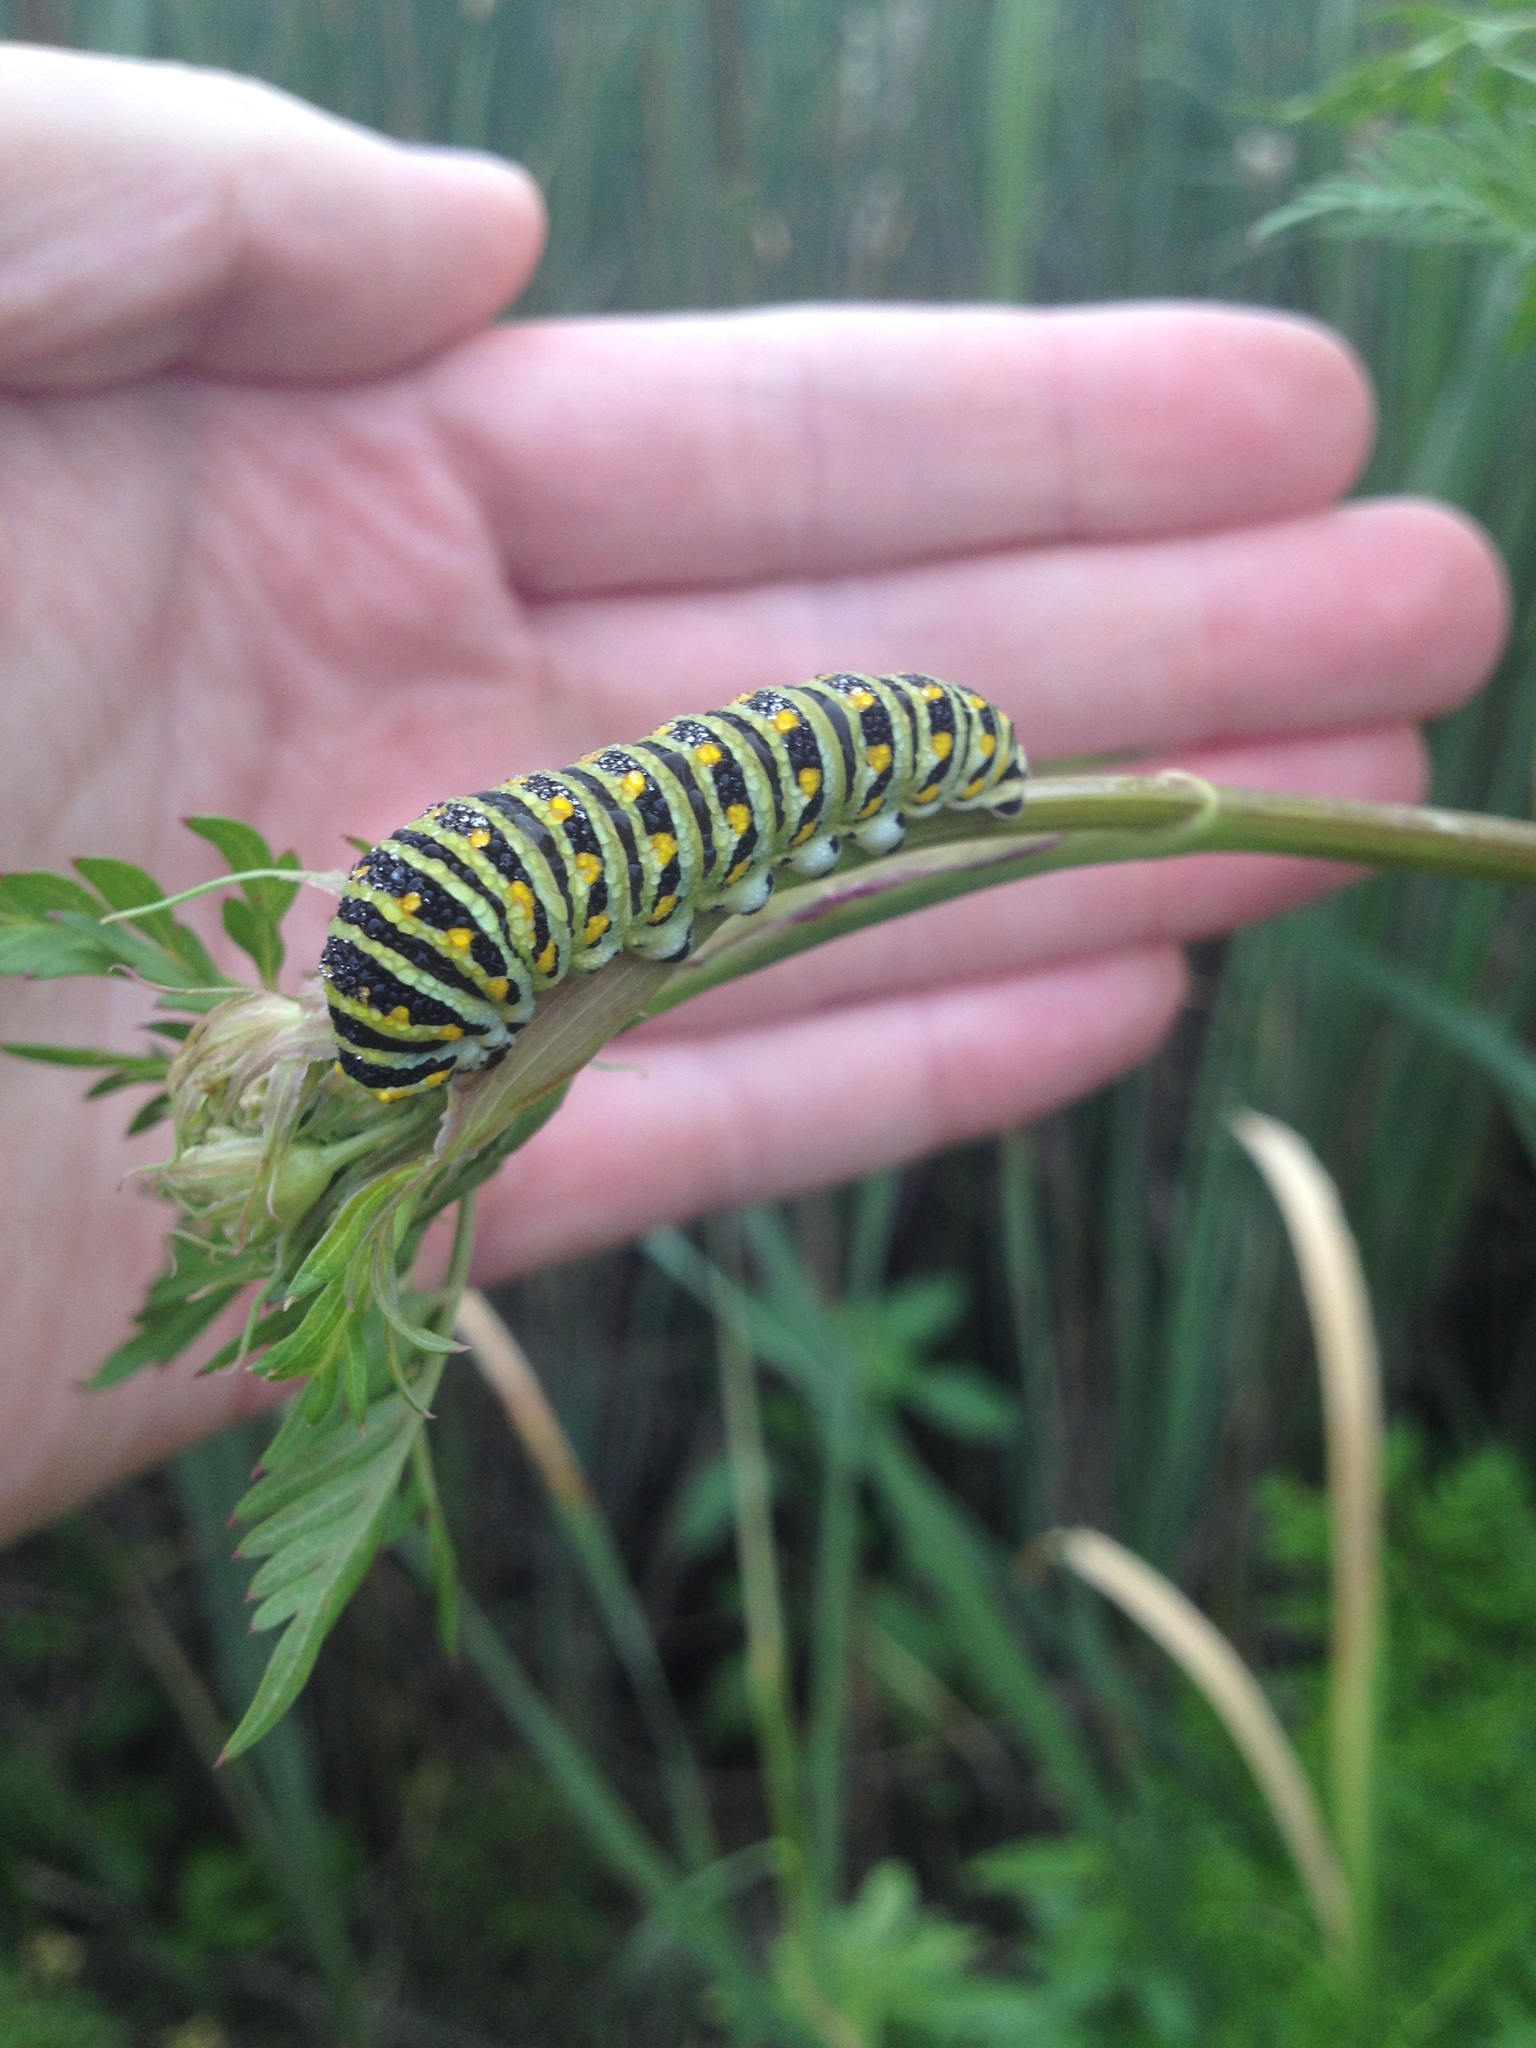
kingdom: Animalia
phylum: Arthropoda
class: Insecta
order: Lepidoptera
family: Papilionidae
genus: Papilio
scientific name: Papilio polyxenes
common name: Black swallowtail
